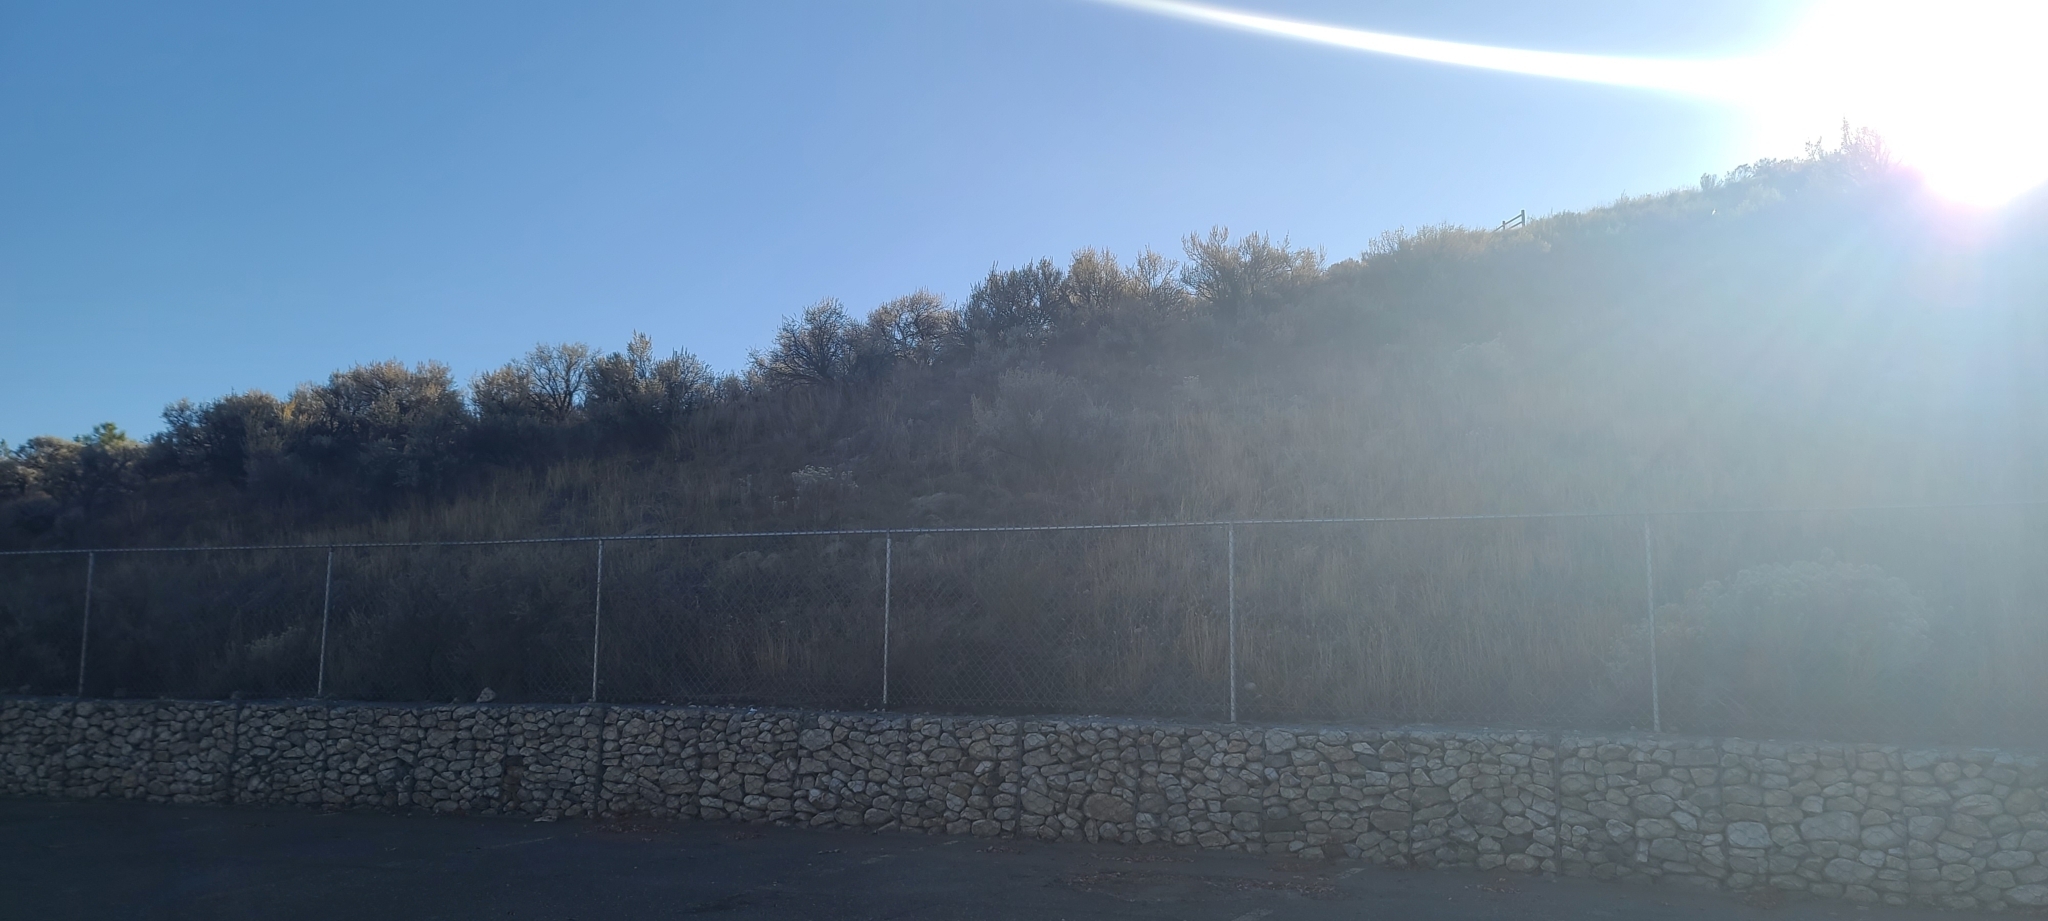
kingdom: Animalia
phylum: Chordata
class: Aves
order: Passeriformes
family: Corvidae
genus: Pica
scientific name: Pica hudsonia
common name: Black-billed magpie
